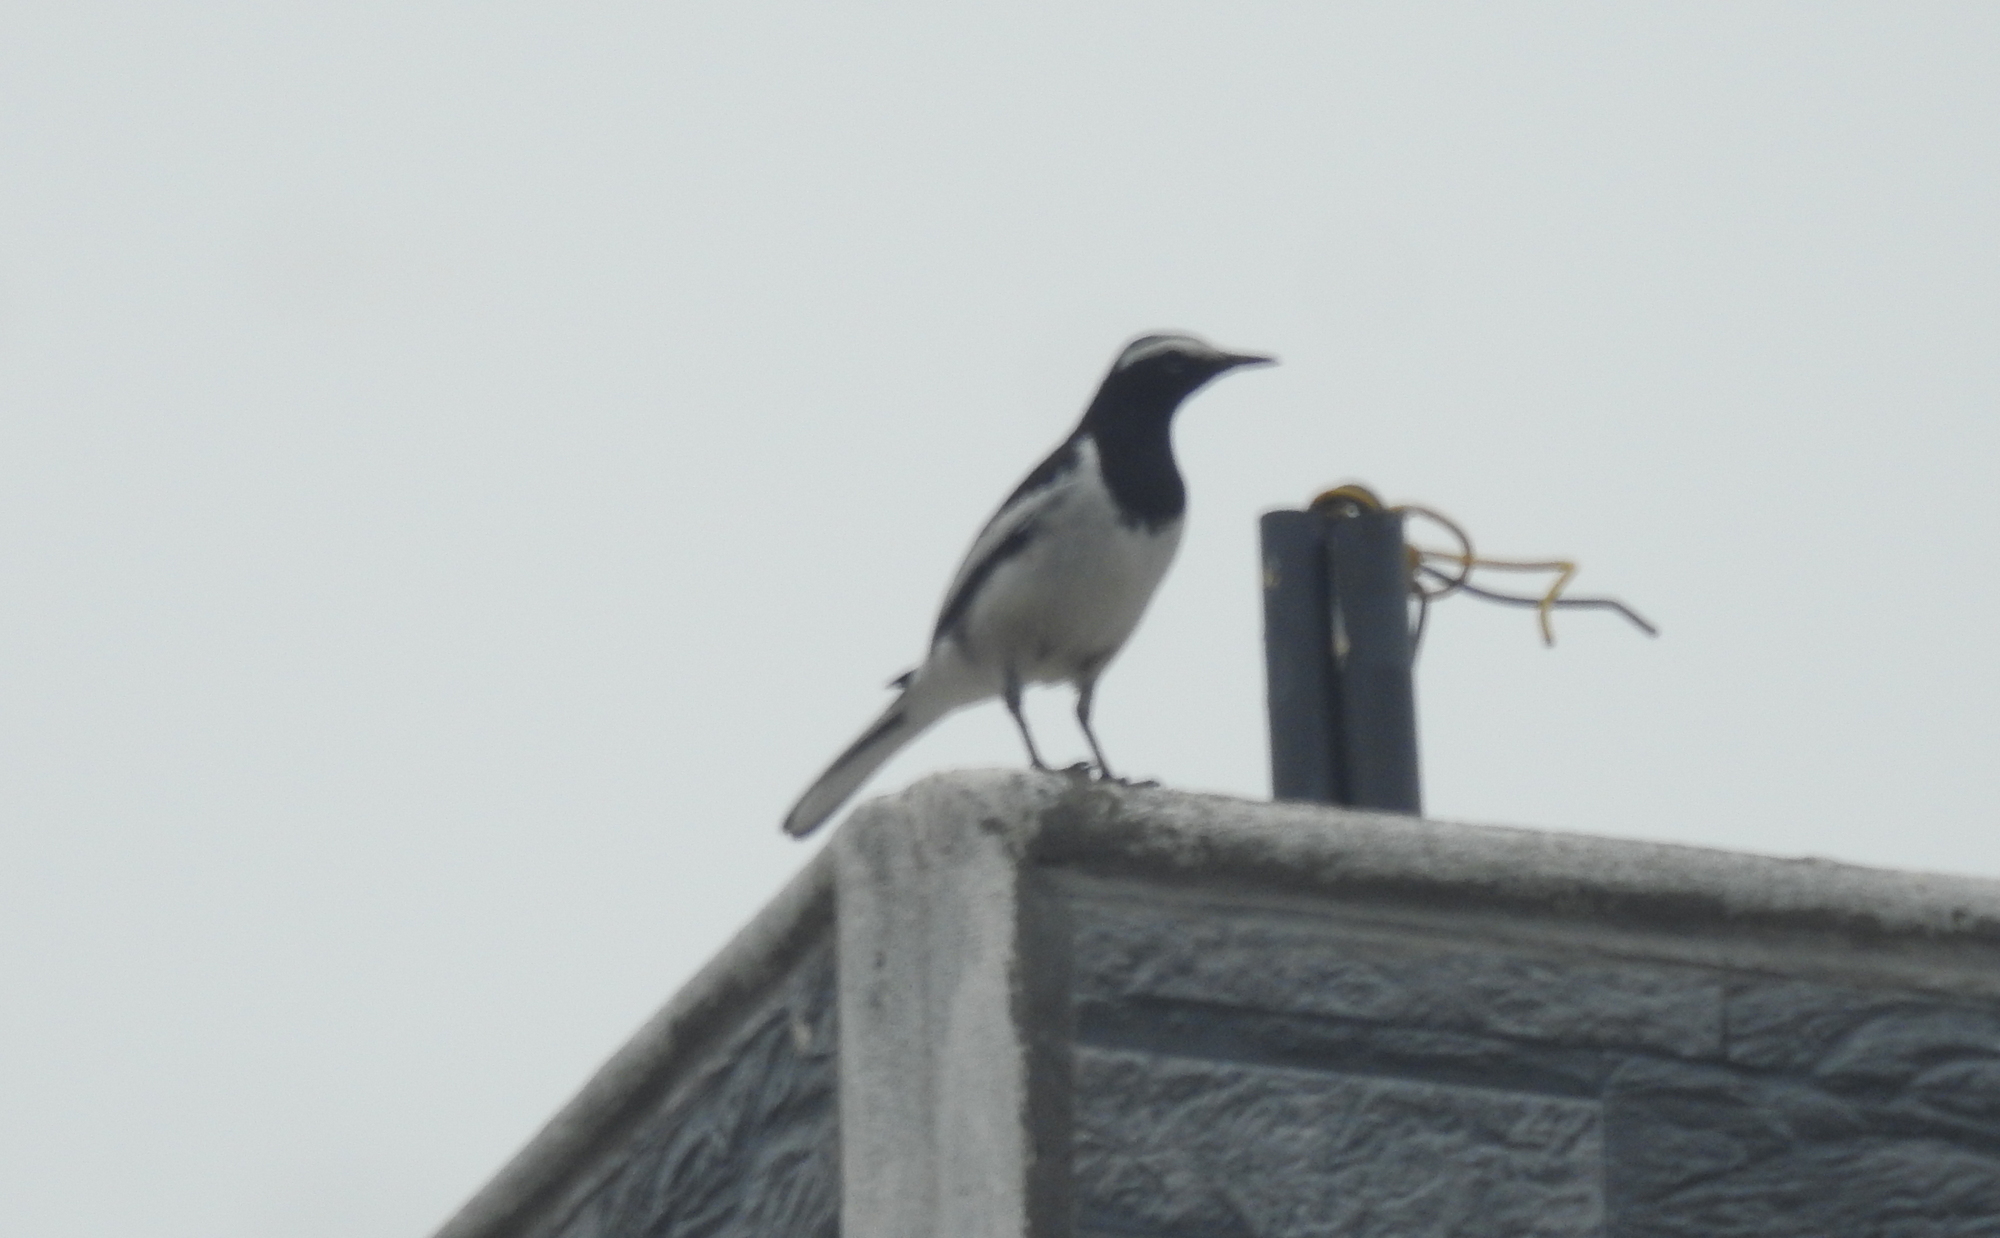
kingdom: Animalia
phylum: Chordata
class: Aves
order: Passeriformes
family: Motacillidae
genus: Motacilla
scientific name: Motacilla maderaspatensis
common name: White-browed wagtail
